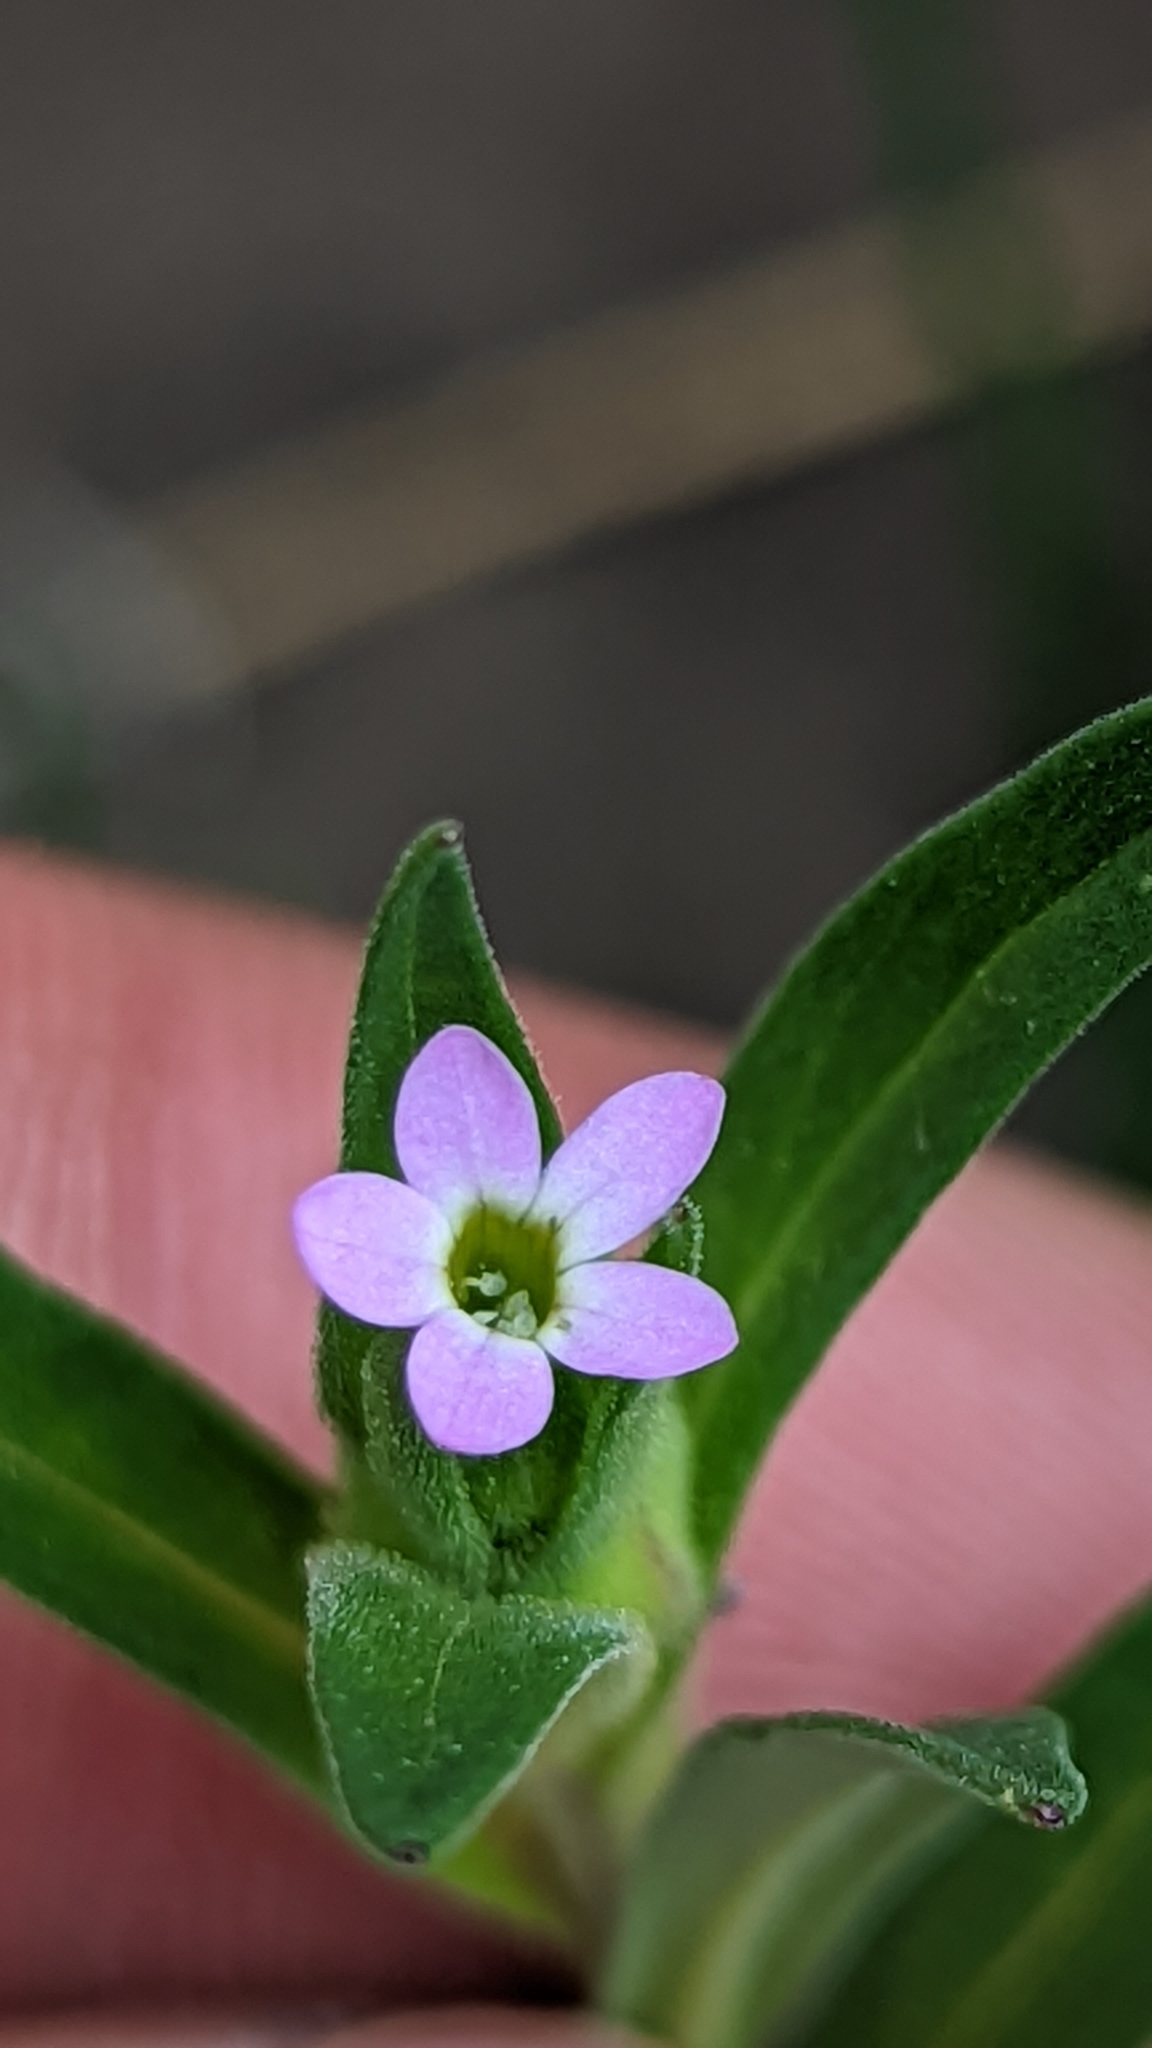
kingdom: Plantae
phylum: Tracheophyta
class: Magnoliopsida
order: Ericales
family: Polemoniaceae
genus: Collomia
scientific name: Collomia linearis
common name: Tiny trumpet
